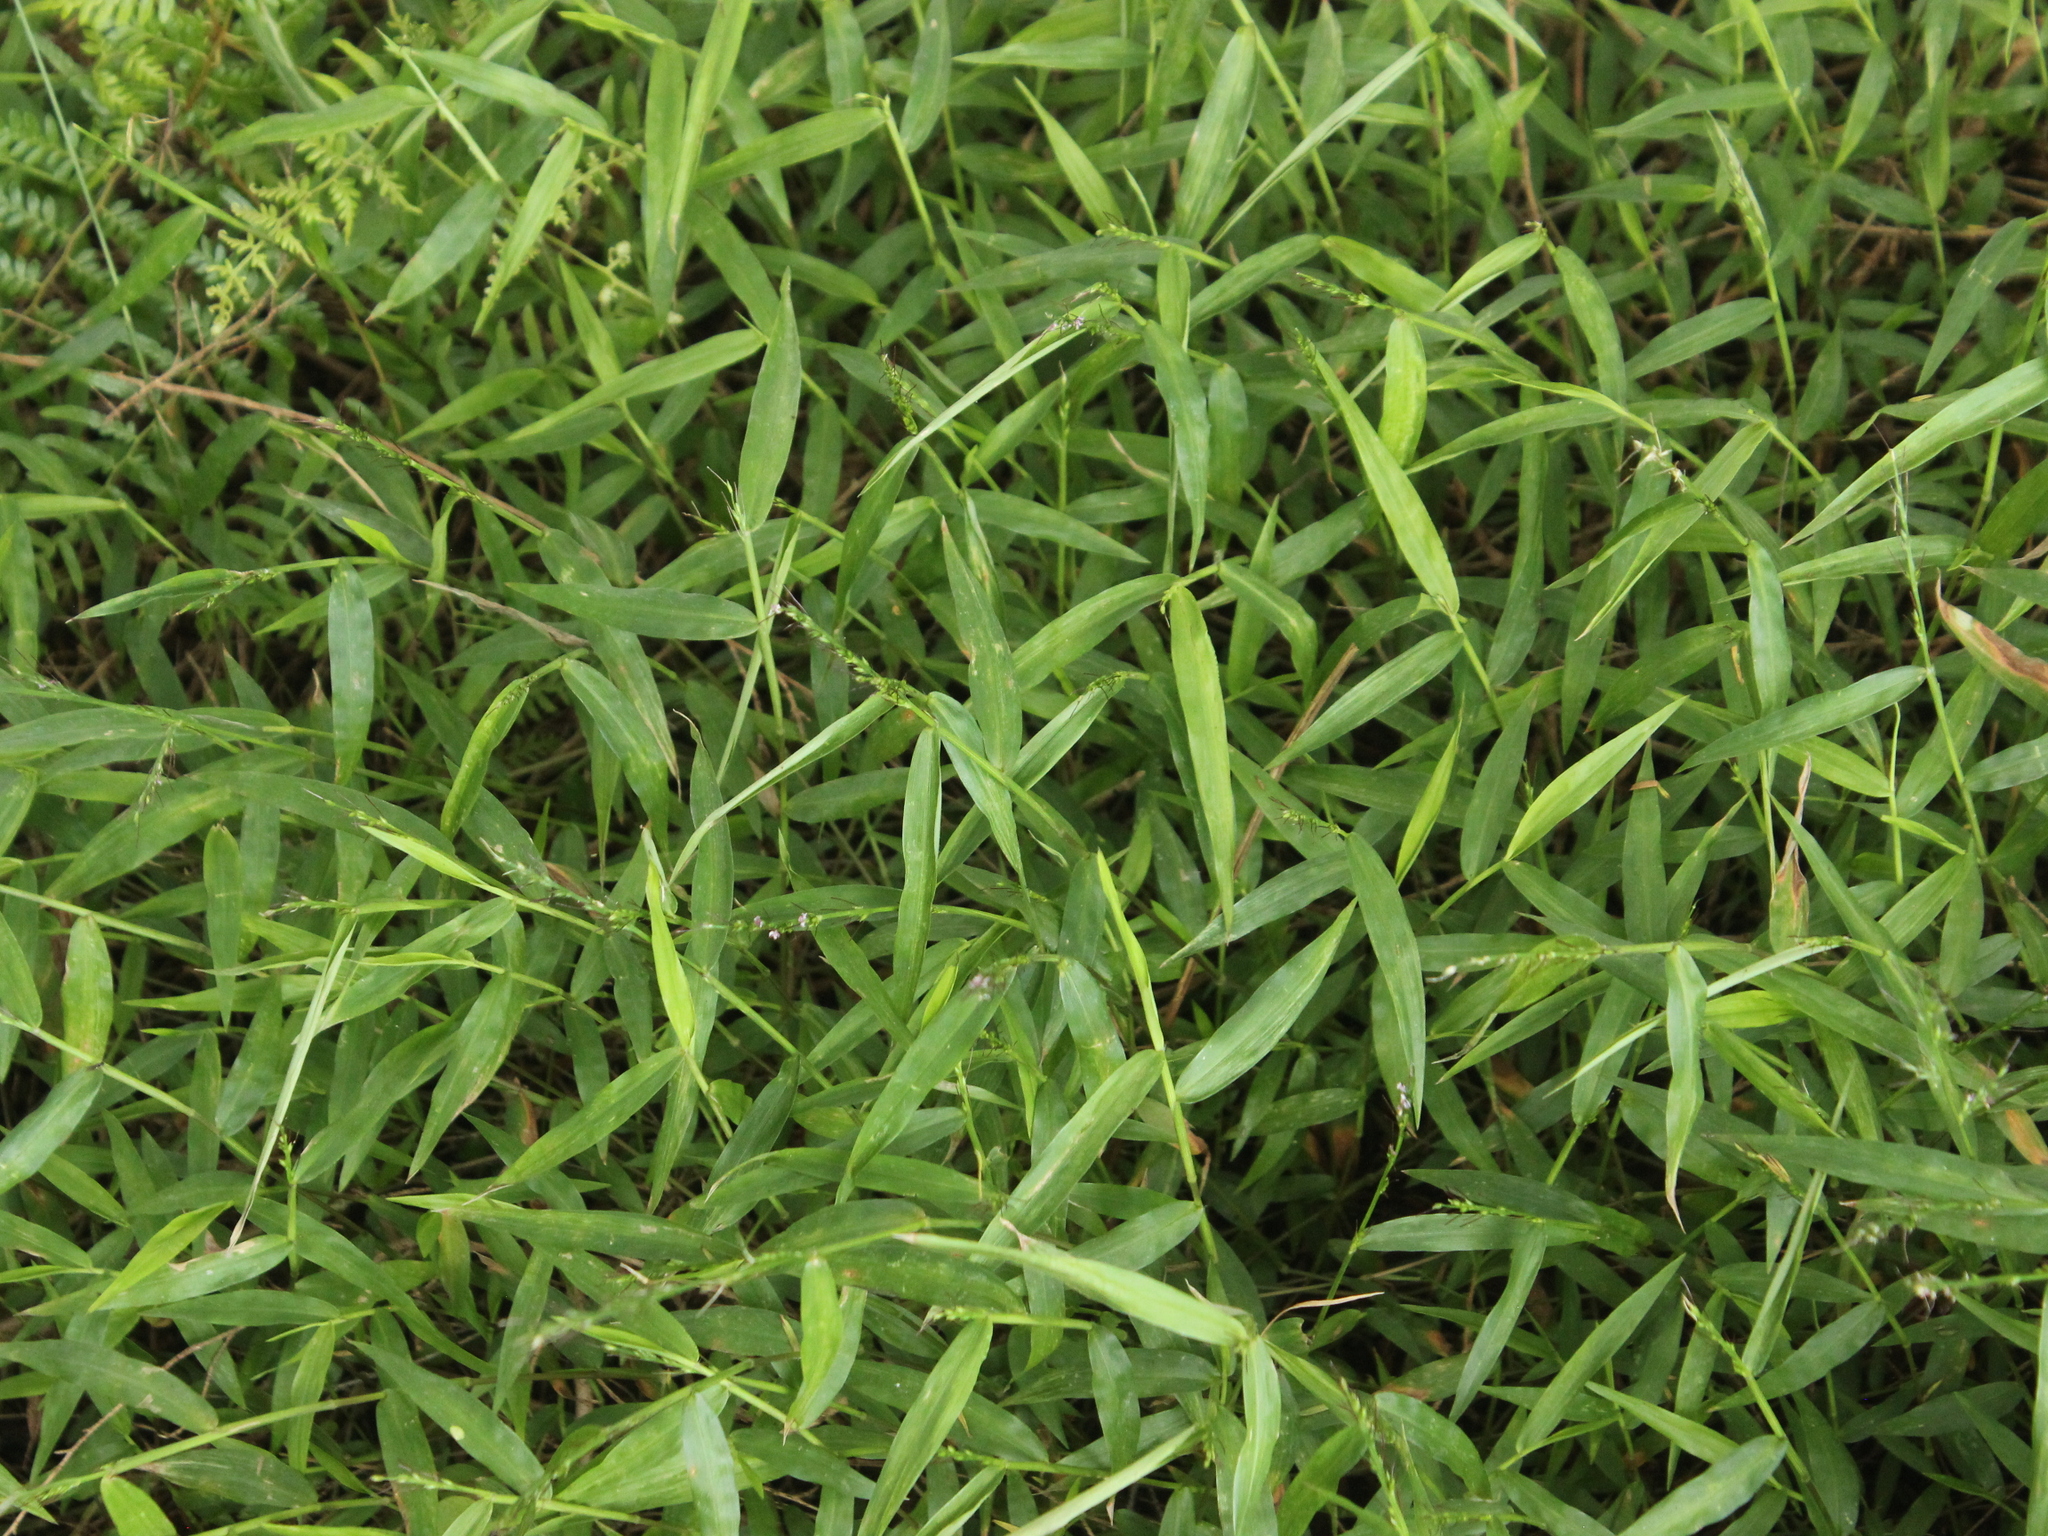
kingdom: Plantae
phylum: Tracheophyta
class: Liliopsida
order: Poales
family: Poaceae
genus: Oplismenus
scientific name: Oplismenus hirtellus
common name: Basketgrass
